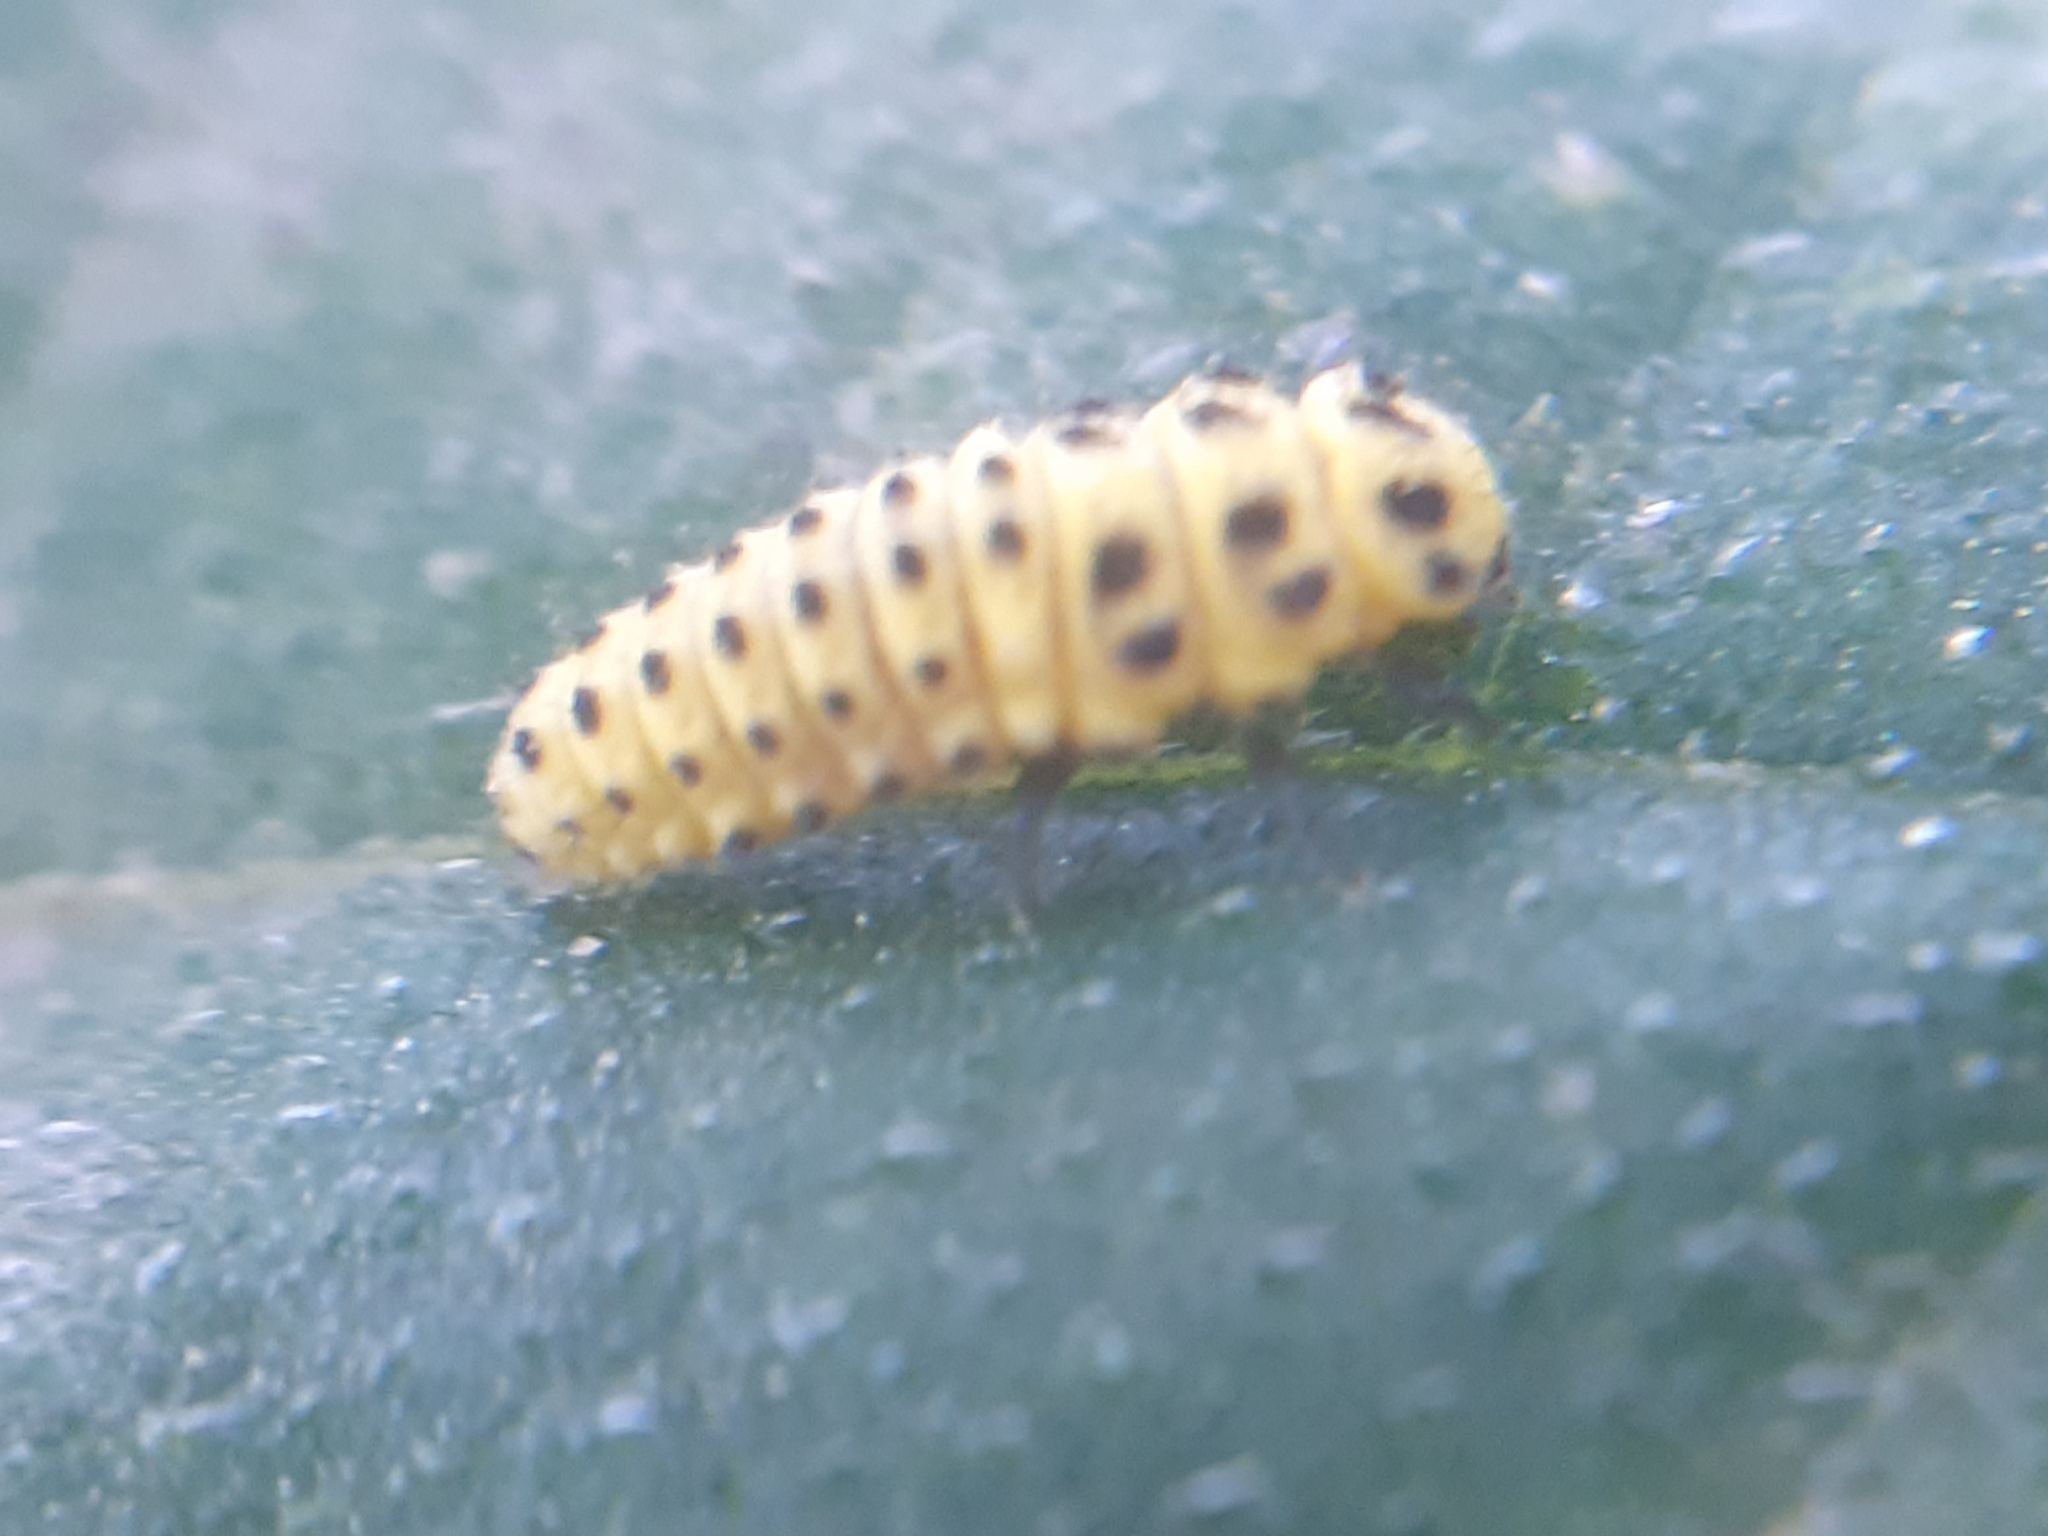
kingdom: Animalia
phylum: Arthropoda
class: Insecta
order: Coleoptera
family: Coccinellidae
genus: Psyllobora
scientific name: Psyllobora vigintiduopunctata
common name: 22-spot ladybird
